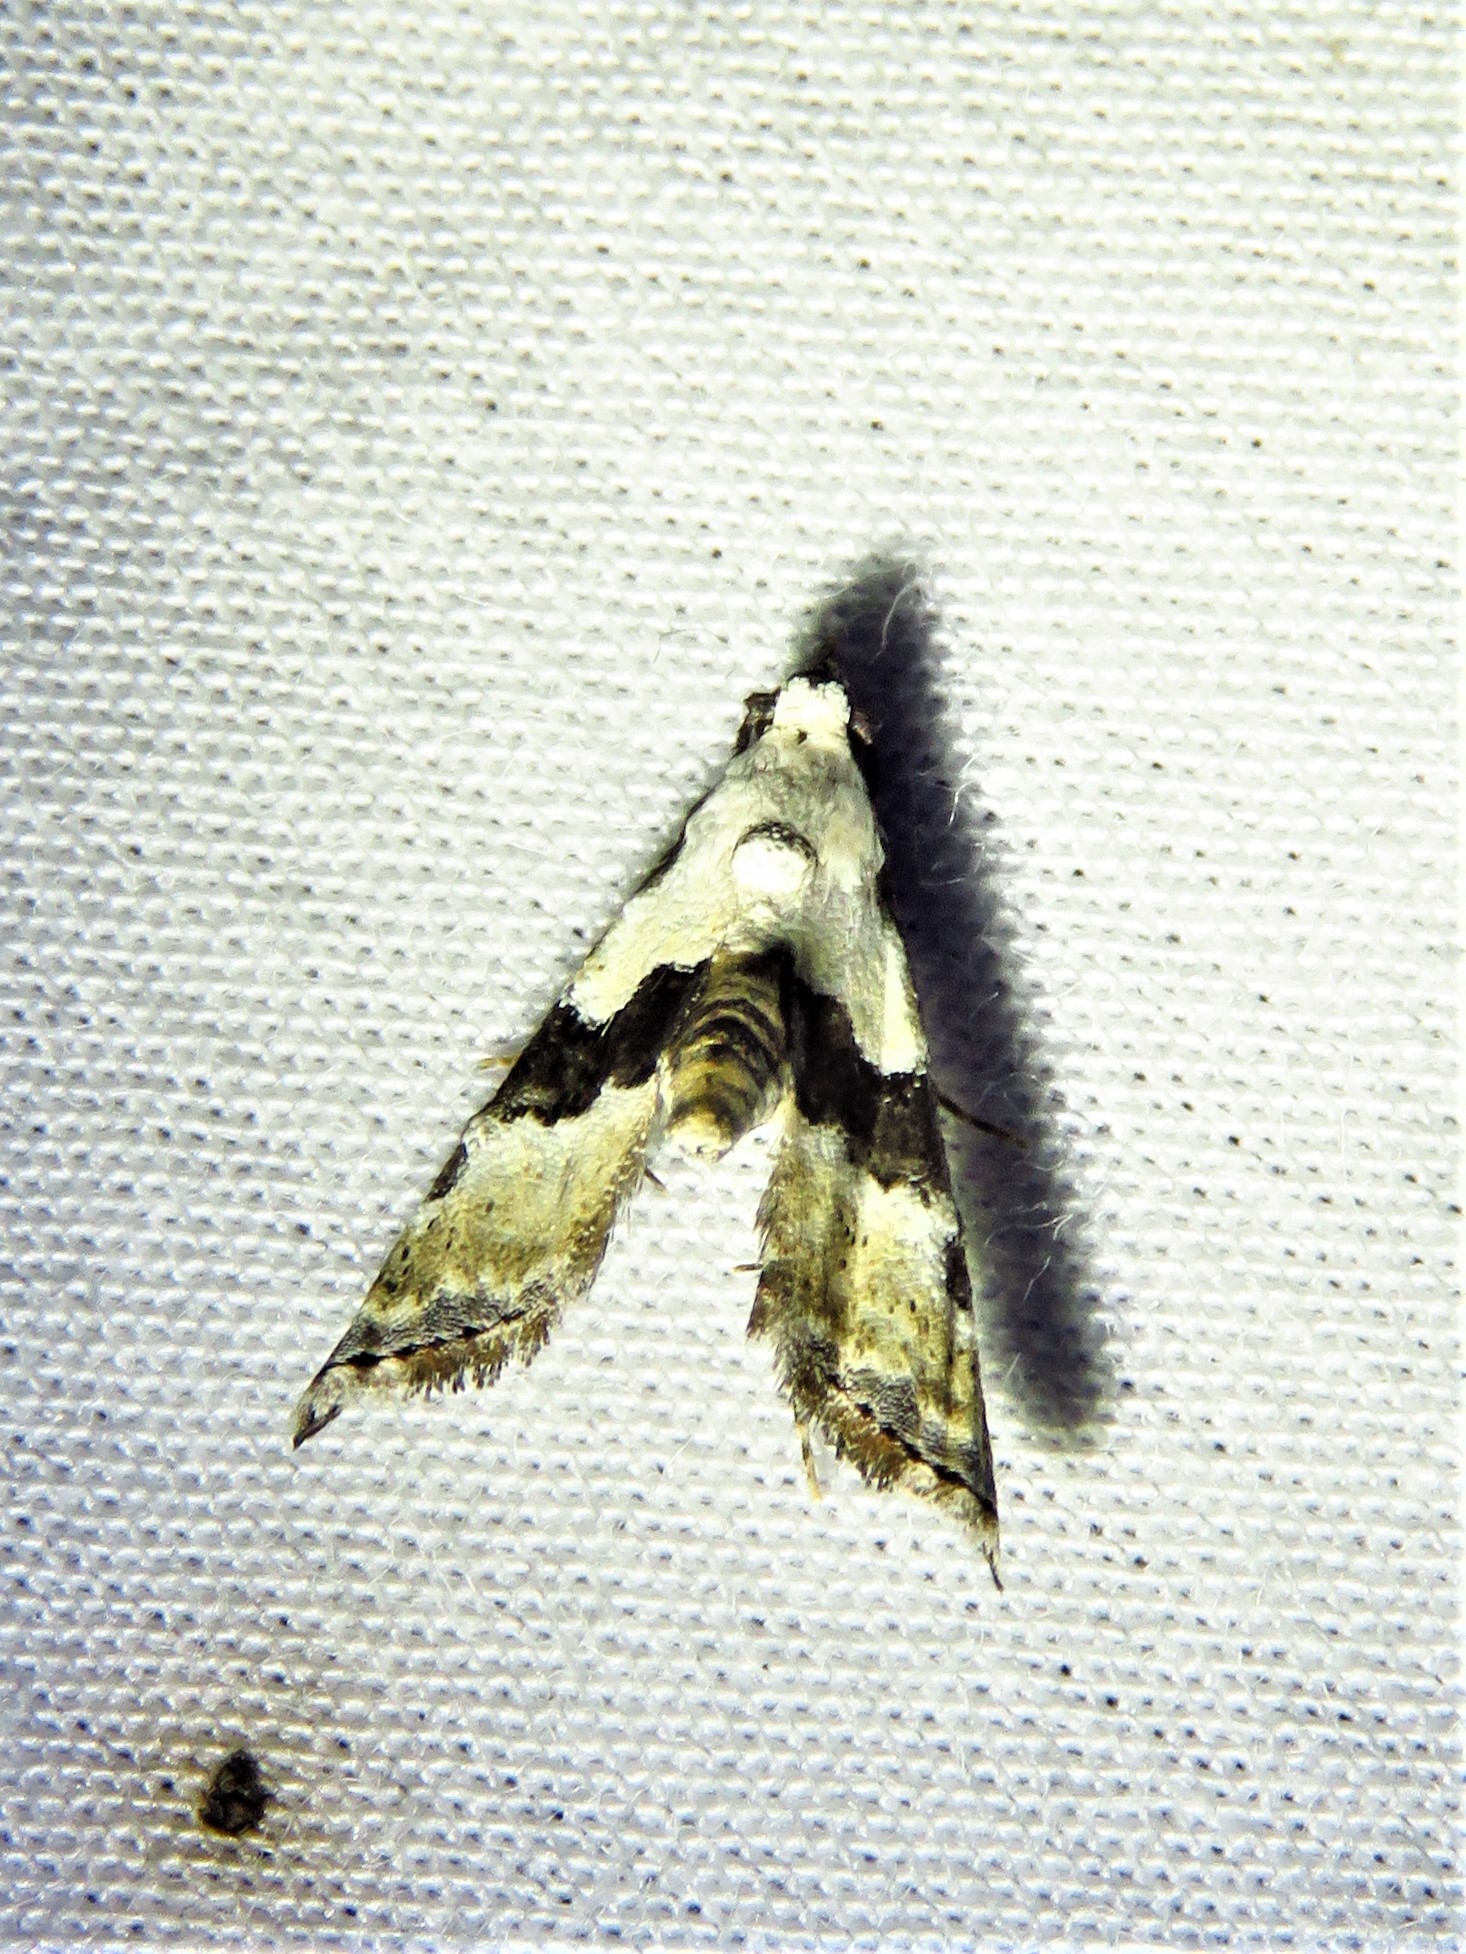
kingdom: Animalia
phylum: Arthropoda
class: Insecta
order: Lepidoptera
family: Noctuidae
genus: Nigetia
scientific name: Nigetia formosalis
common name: Thin-winged owlet
